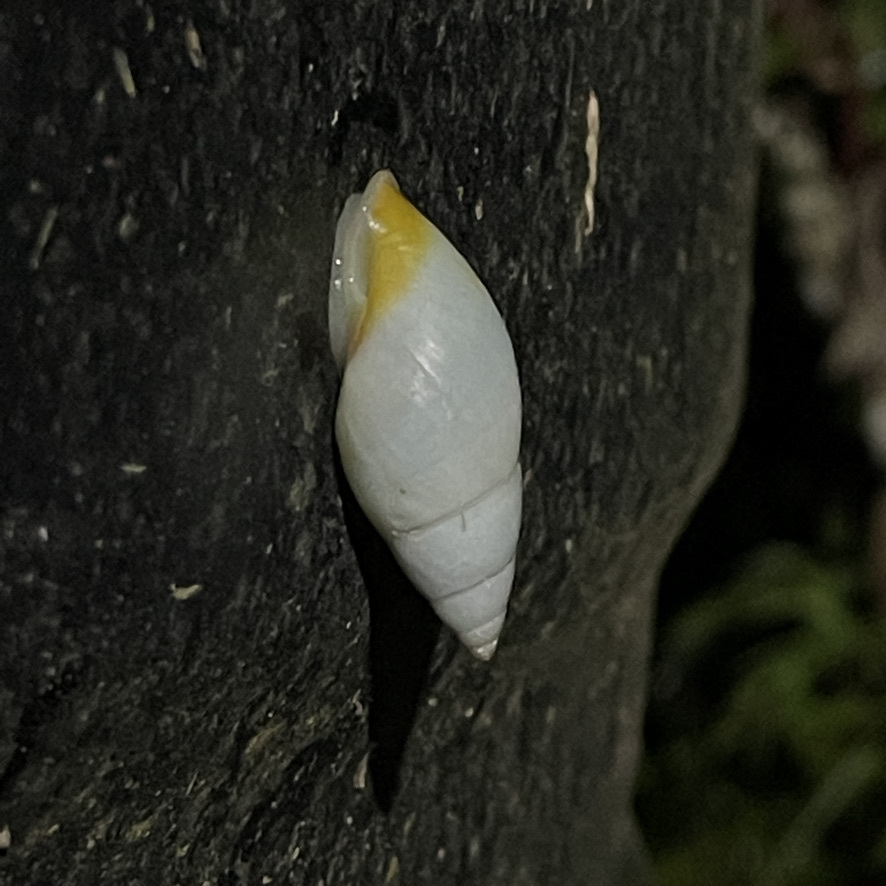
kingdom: Animalia
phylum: Mollusca
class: Gastropoda
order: Stylommatophora
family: Bulimulidae
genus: Drymaeus
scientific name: Drymaeus
